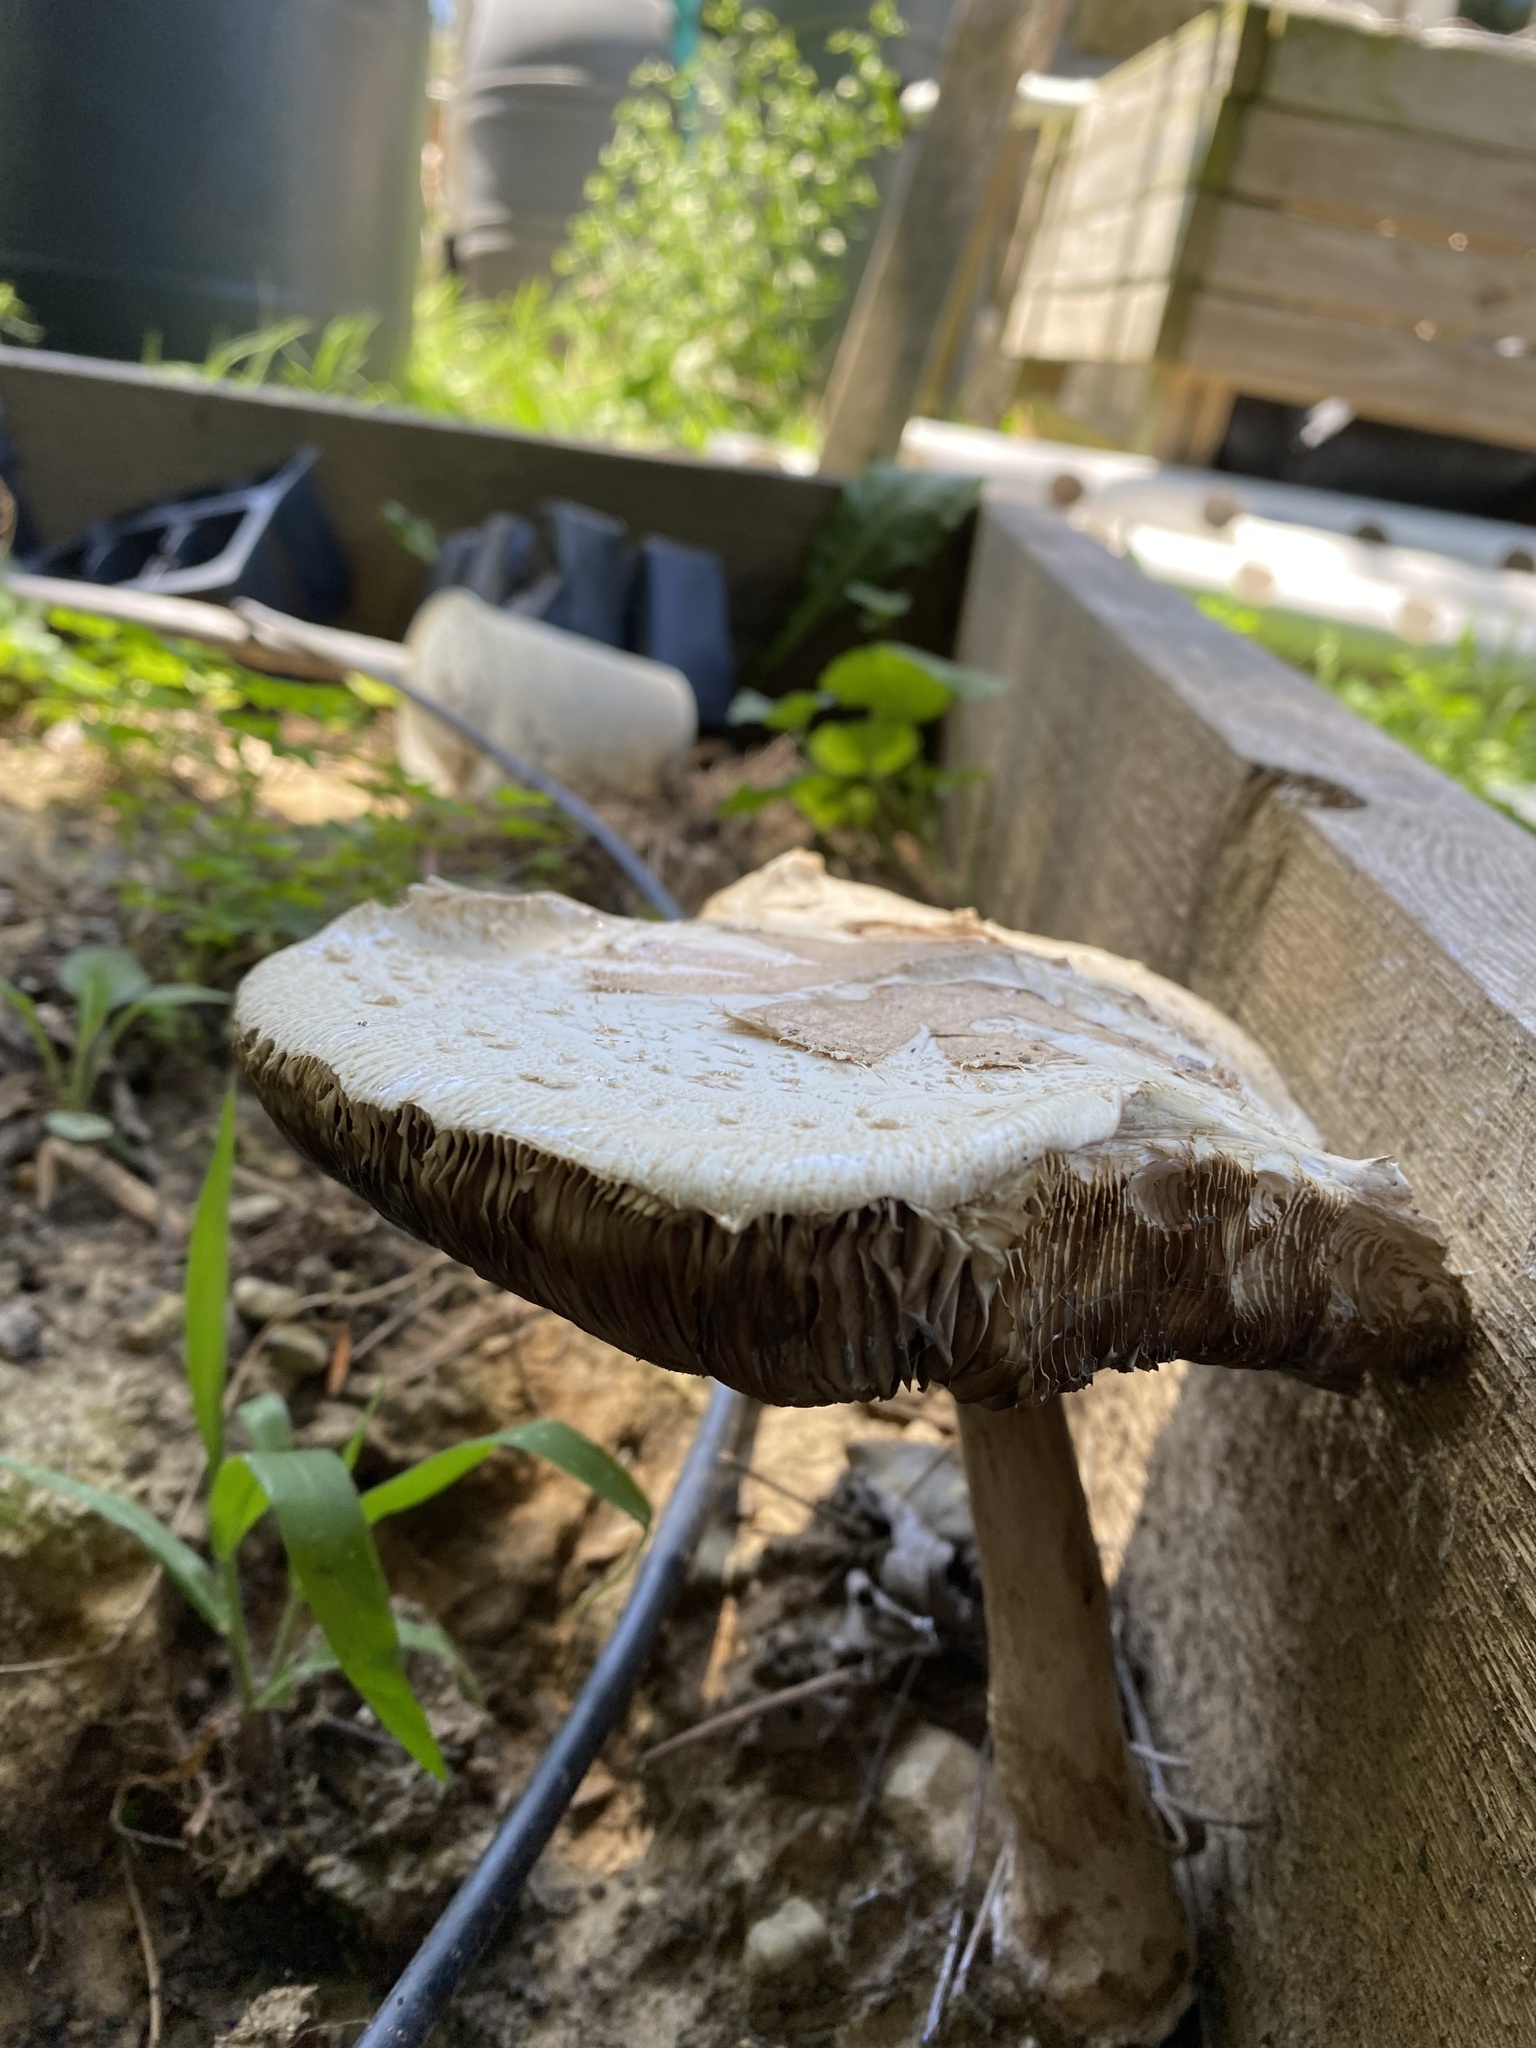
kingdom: Fungi
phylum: Basidiomycota
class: Agaricomycetes
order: Agaricales
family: Agaricaceae
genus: Chlorophyllum
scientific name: Chlorophyllum molybdites
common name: False parasol
